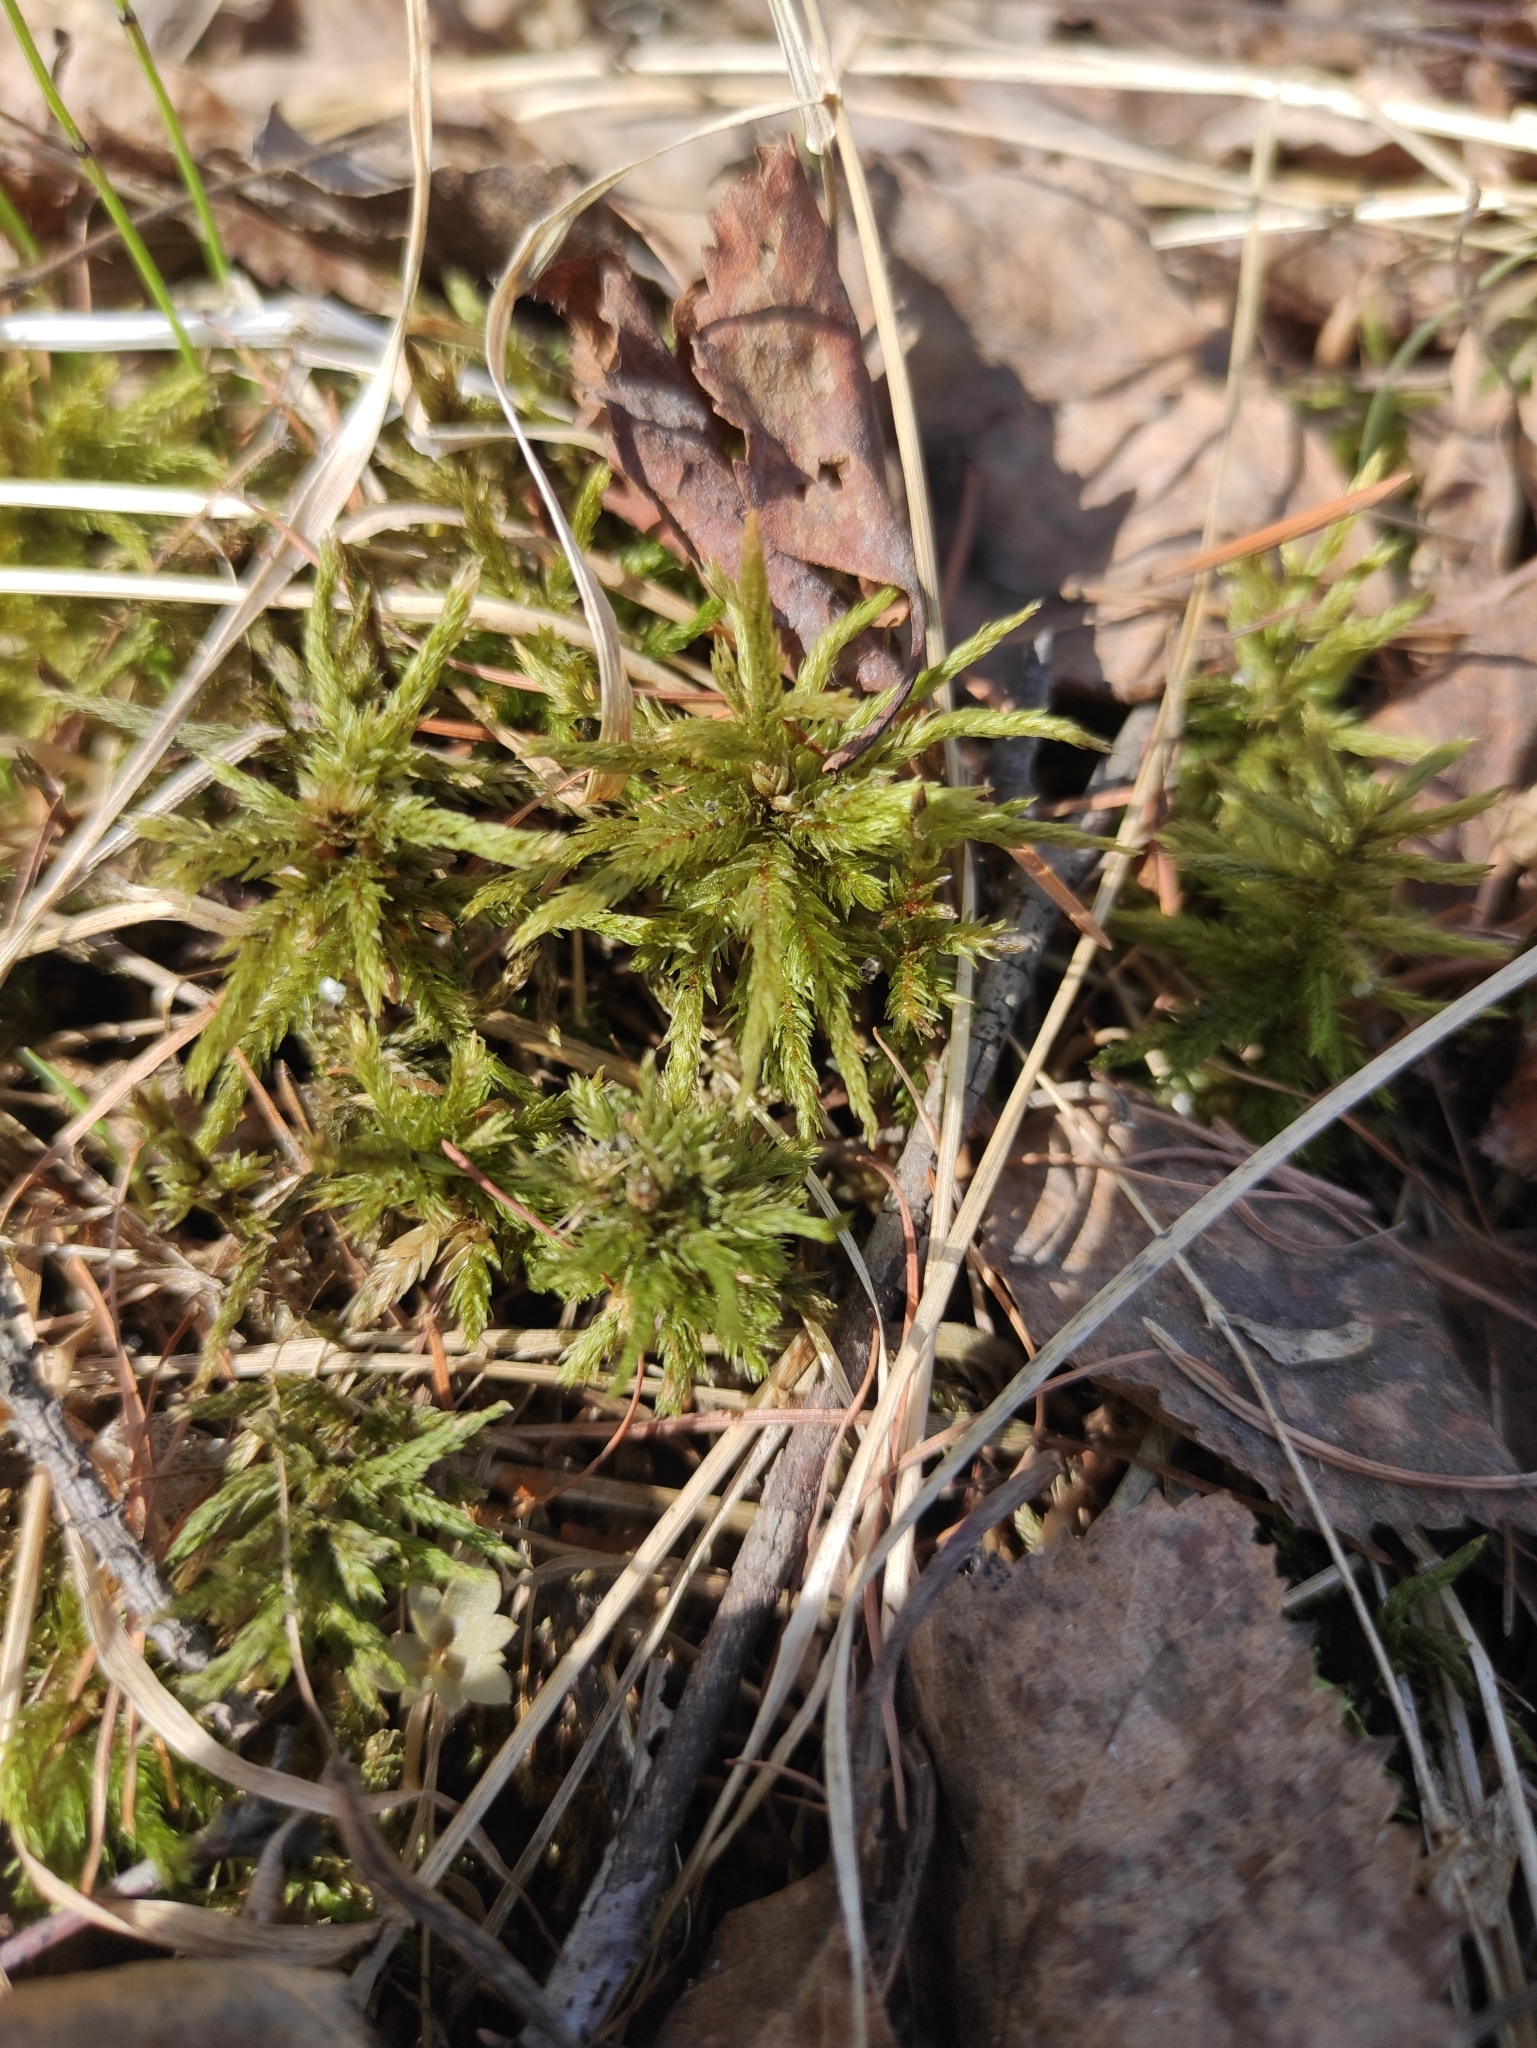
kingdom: Plantae
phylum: Bryophyta
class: Bryopsida
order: Hypnales
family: Climaciaceae
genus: Climacium
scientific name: Climacium dendroides
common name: Northern tree moss
